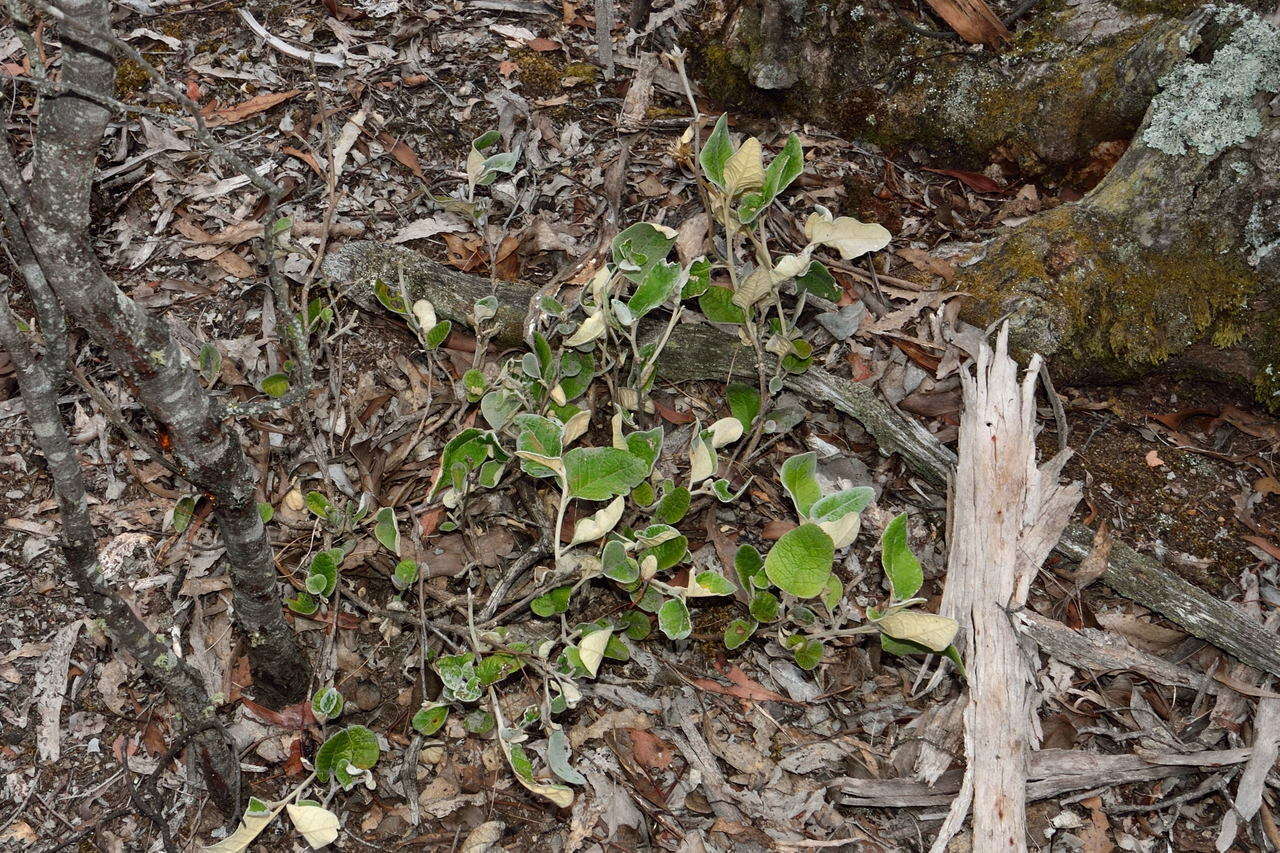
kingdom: Plantae
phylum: Tracheophyta
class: Magnoliopsida
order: Asterales
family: Asteraceae
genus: Olearia
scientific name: Olearia pannosa
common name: Velvet daisybush
